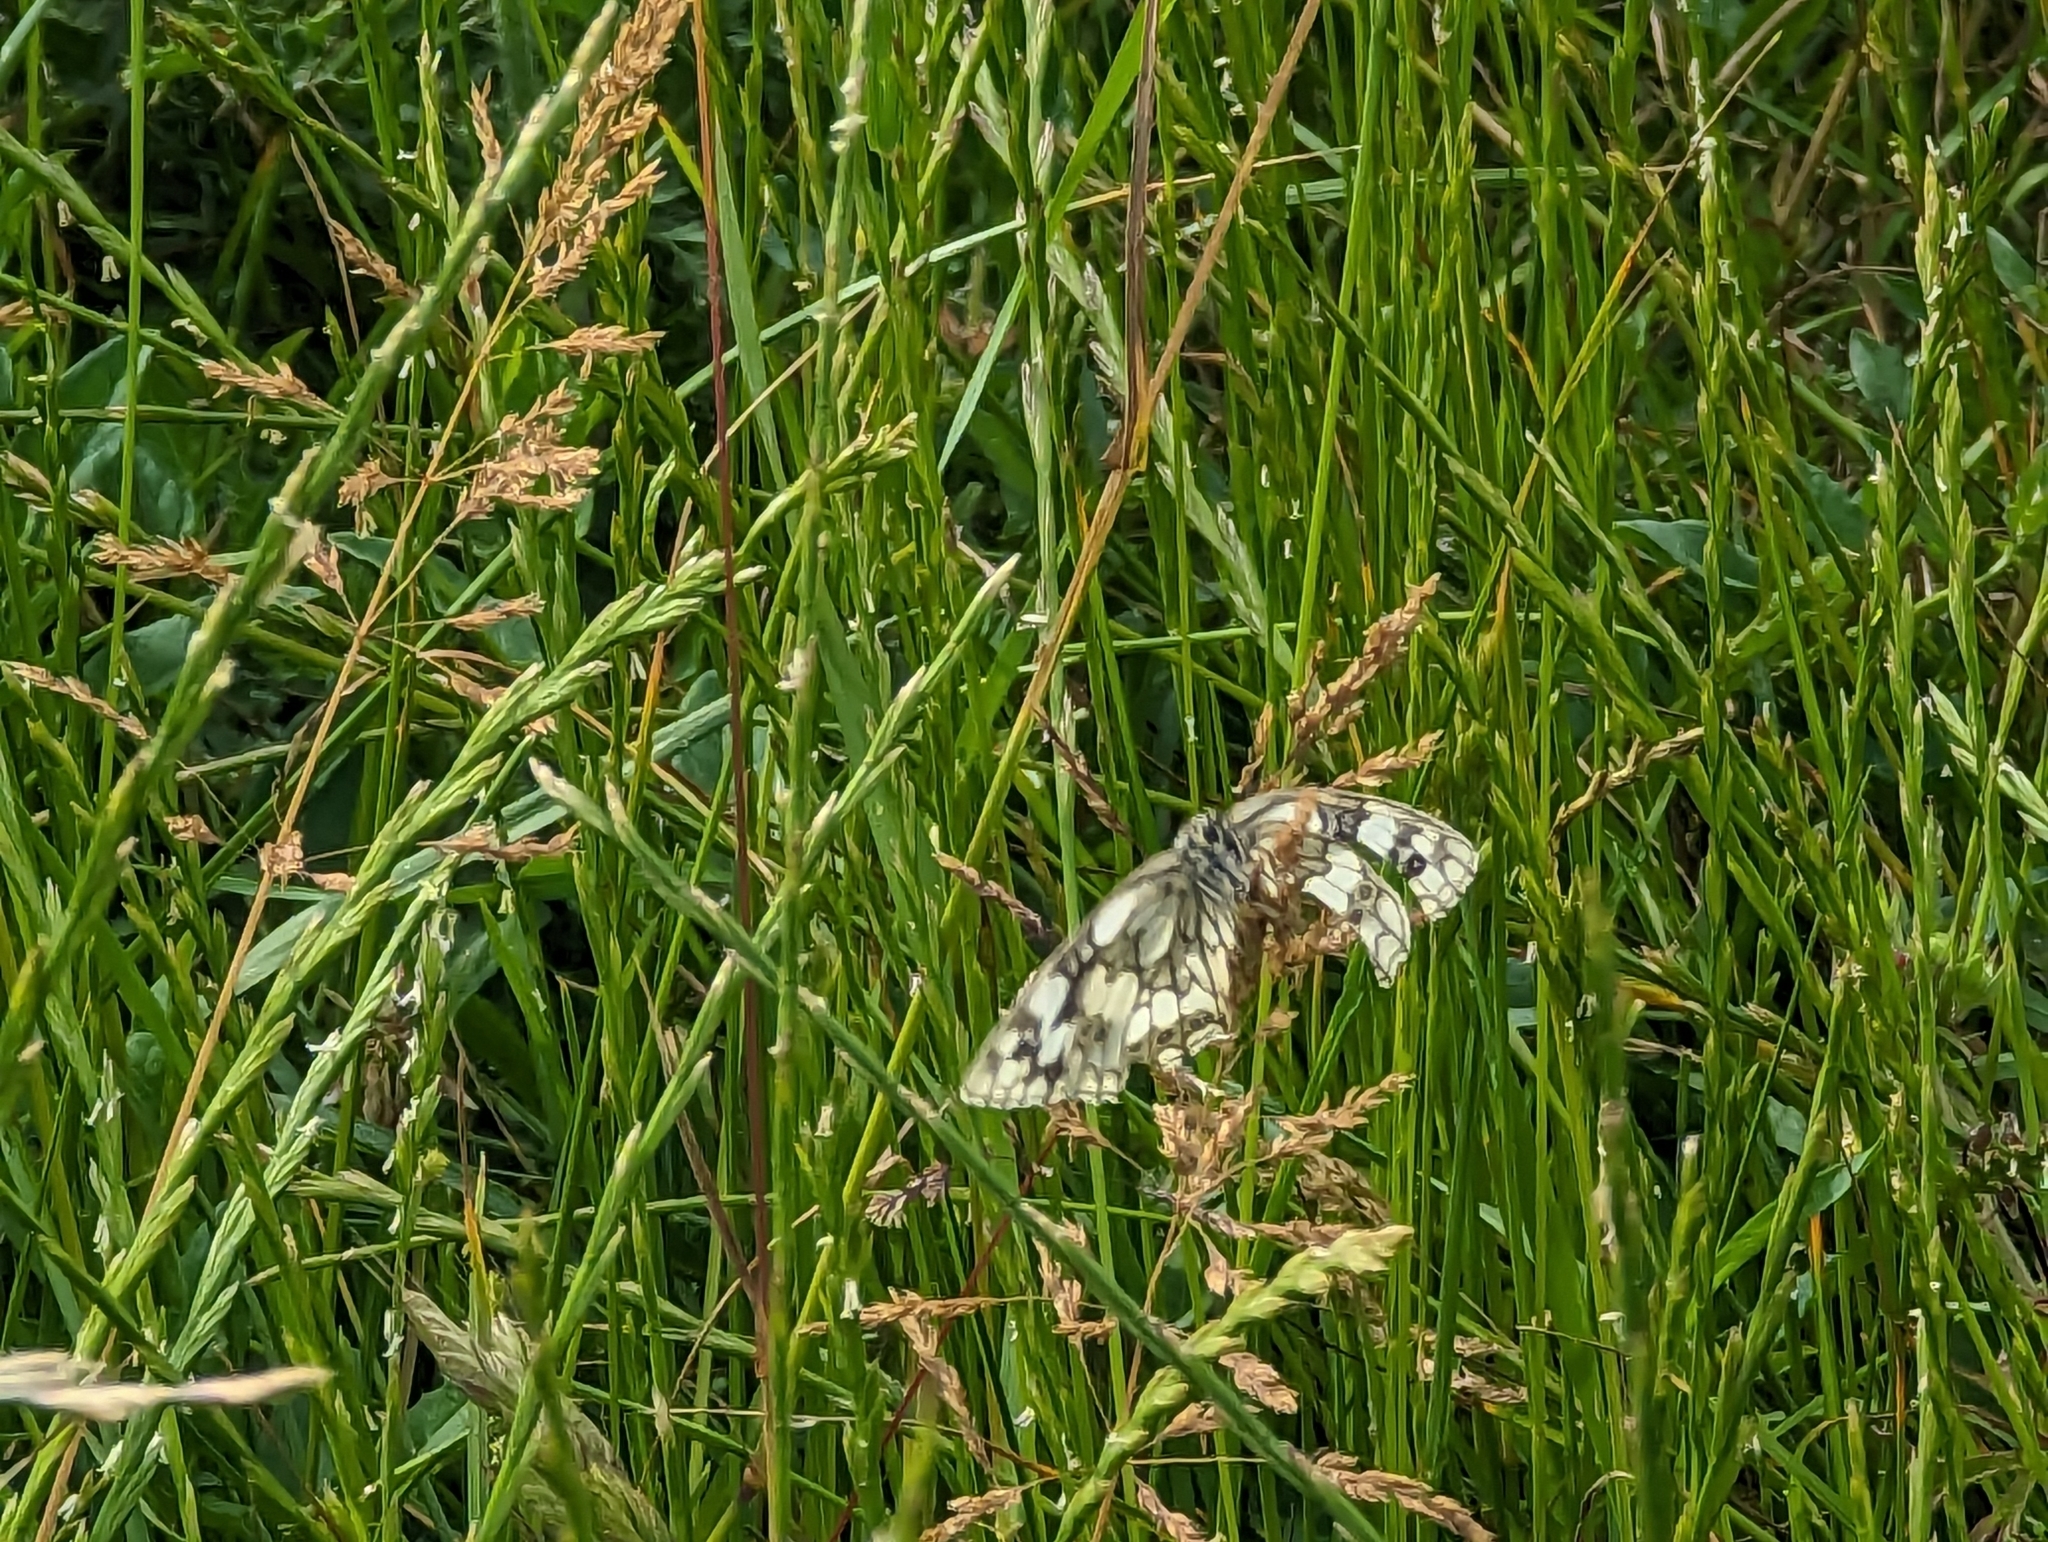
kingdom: Animalia
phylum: Arthropoda
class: Insecta
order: Lepidoptera
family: Nymphalidae
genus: Melanargia
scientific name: Melanargia galathea
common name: Marbled white
